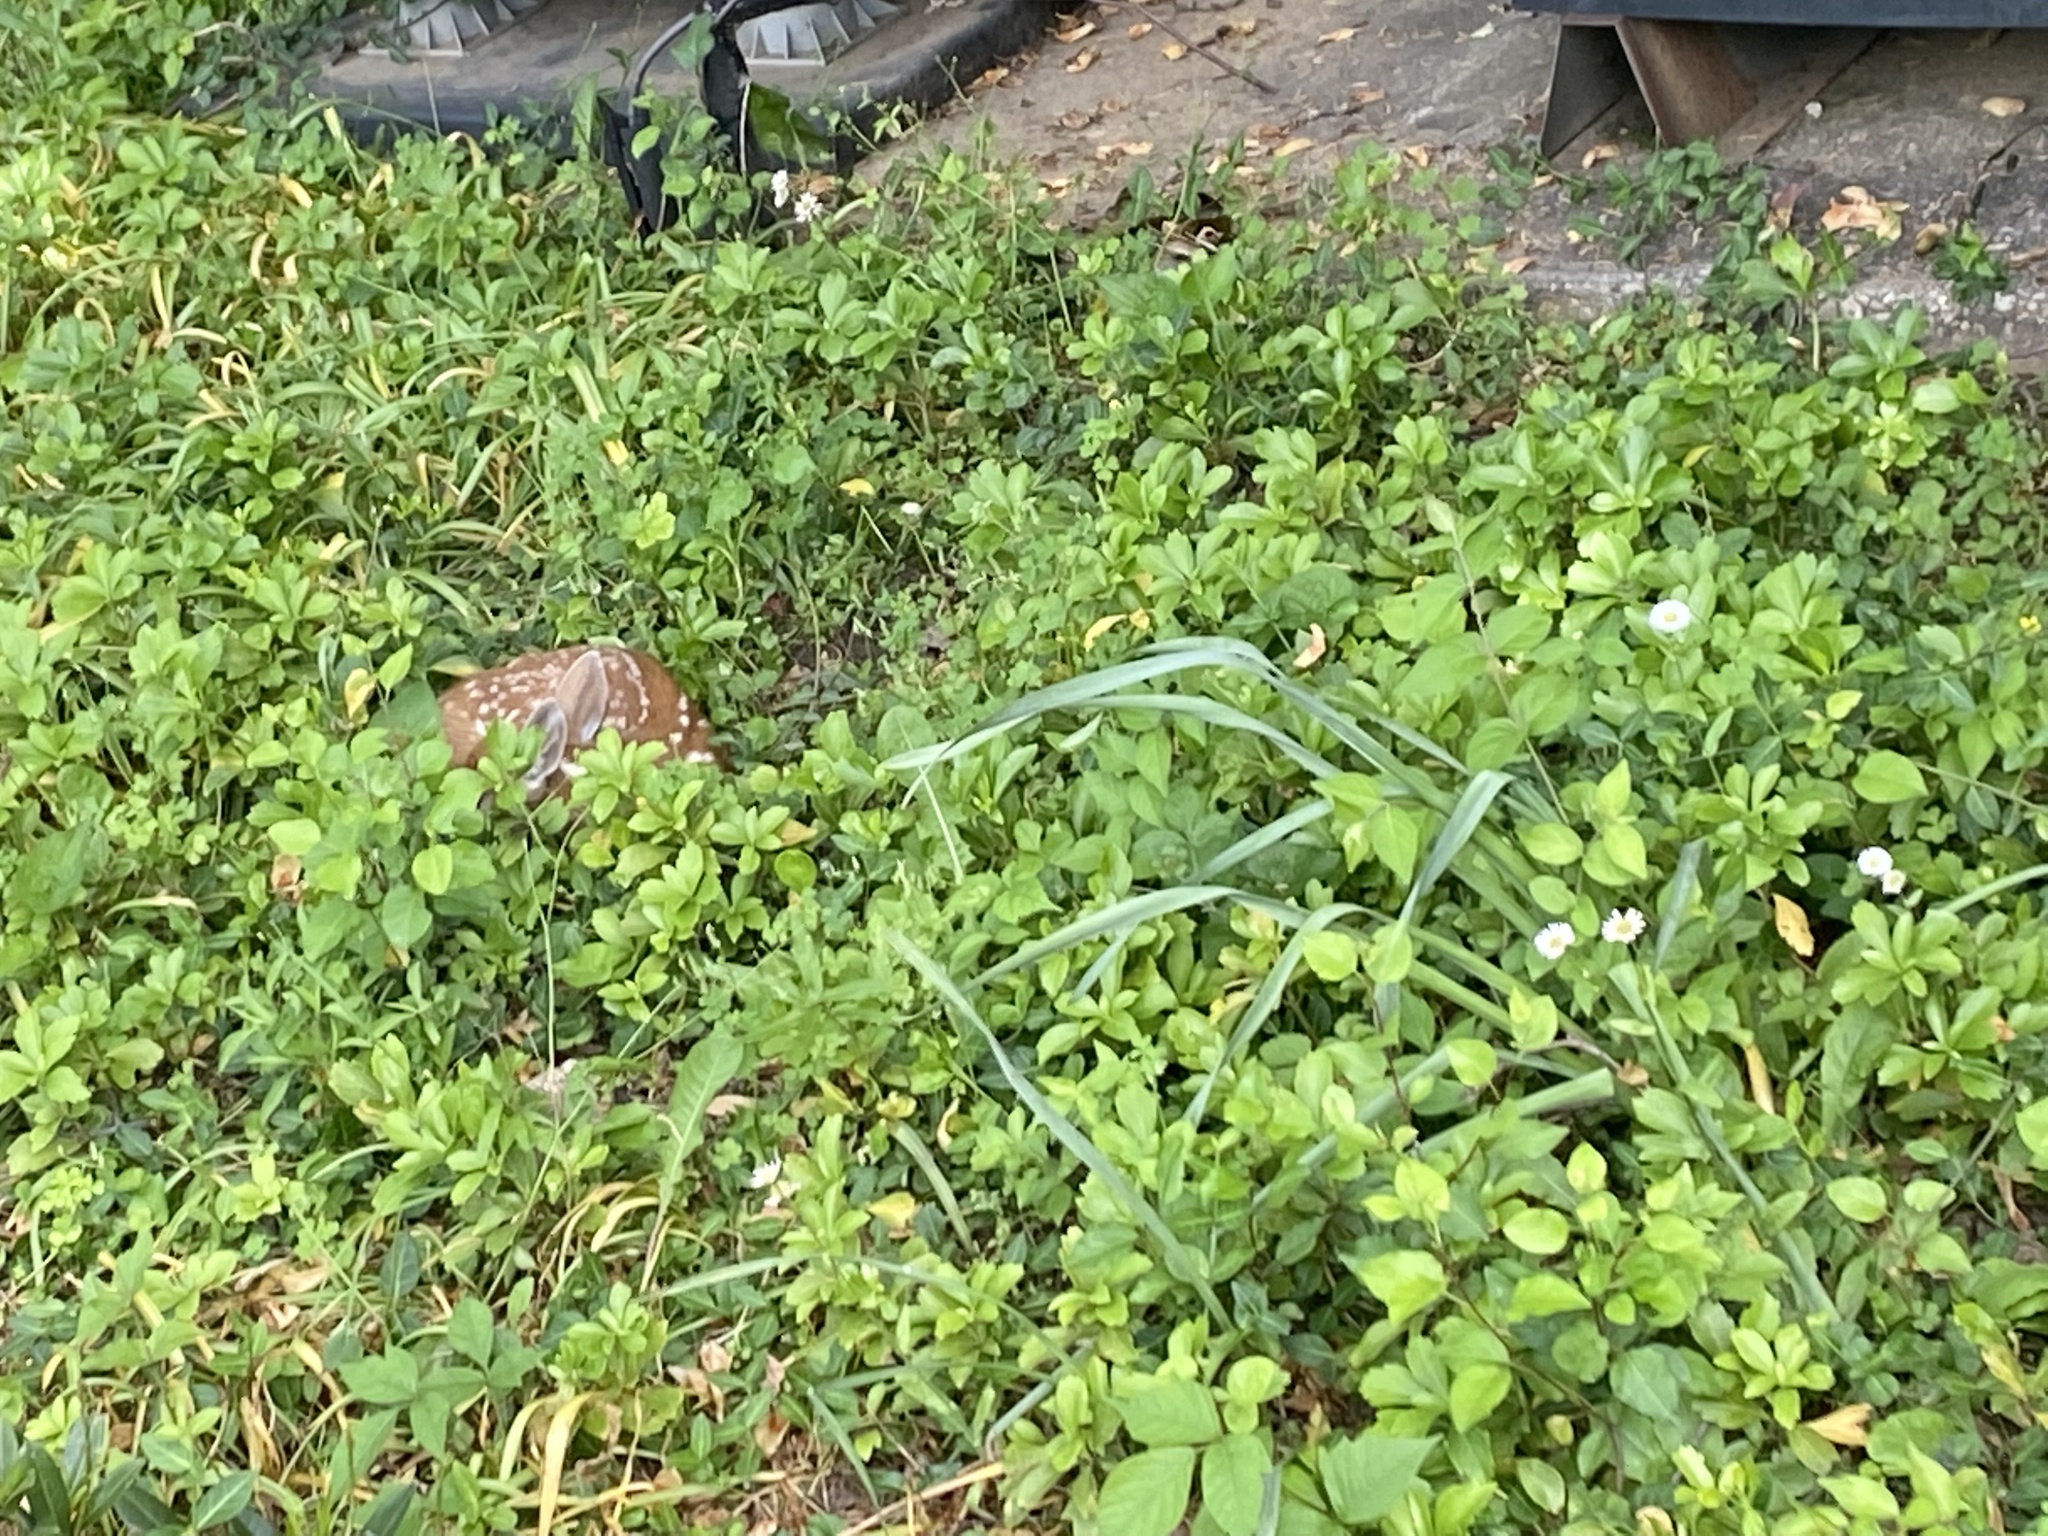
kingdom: Animalia
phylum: Chordata
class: Mammalia
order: Artiodactyla
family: Cervidae
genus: Odocoileus
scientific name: Odocoileus virginianus
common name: White-tailed deer
